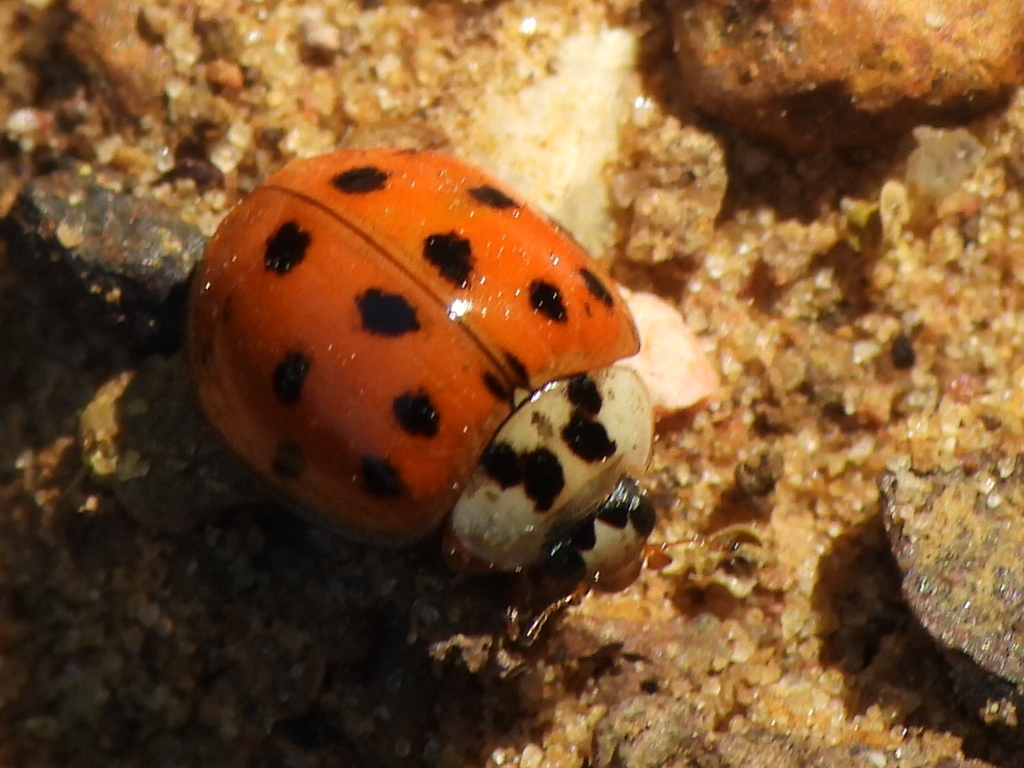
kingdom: Animalia
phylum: Arthropoda
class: Insecta
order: Coleoptera
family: Coccinellidae
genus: Harmonia
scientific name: Harmonia axyridis
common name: Harlequin ladybird
